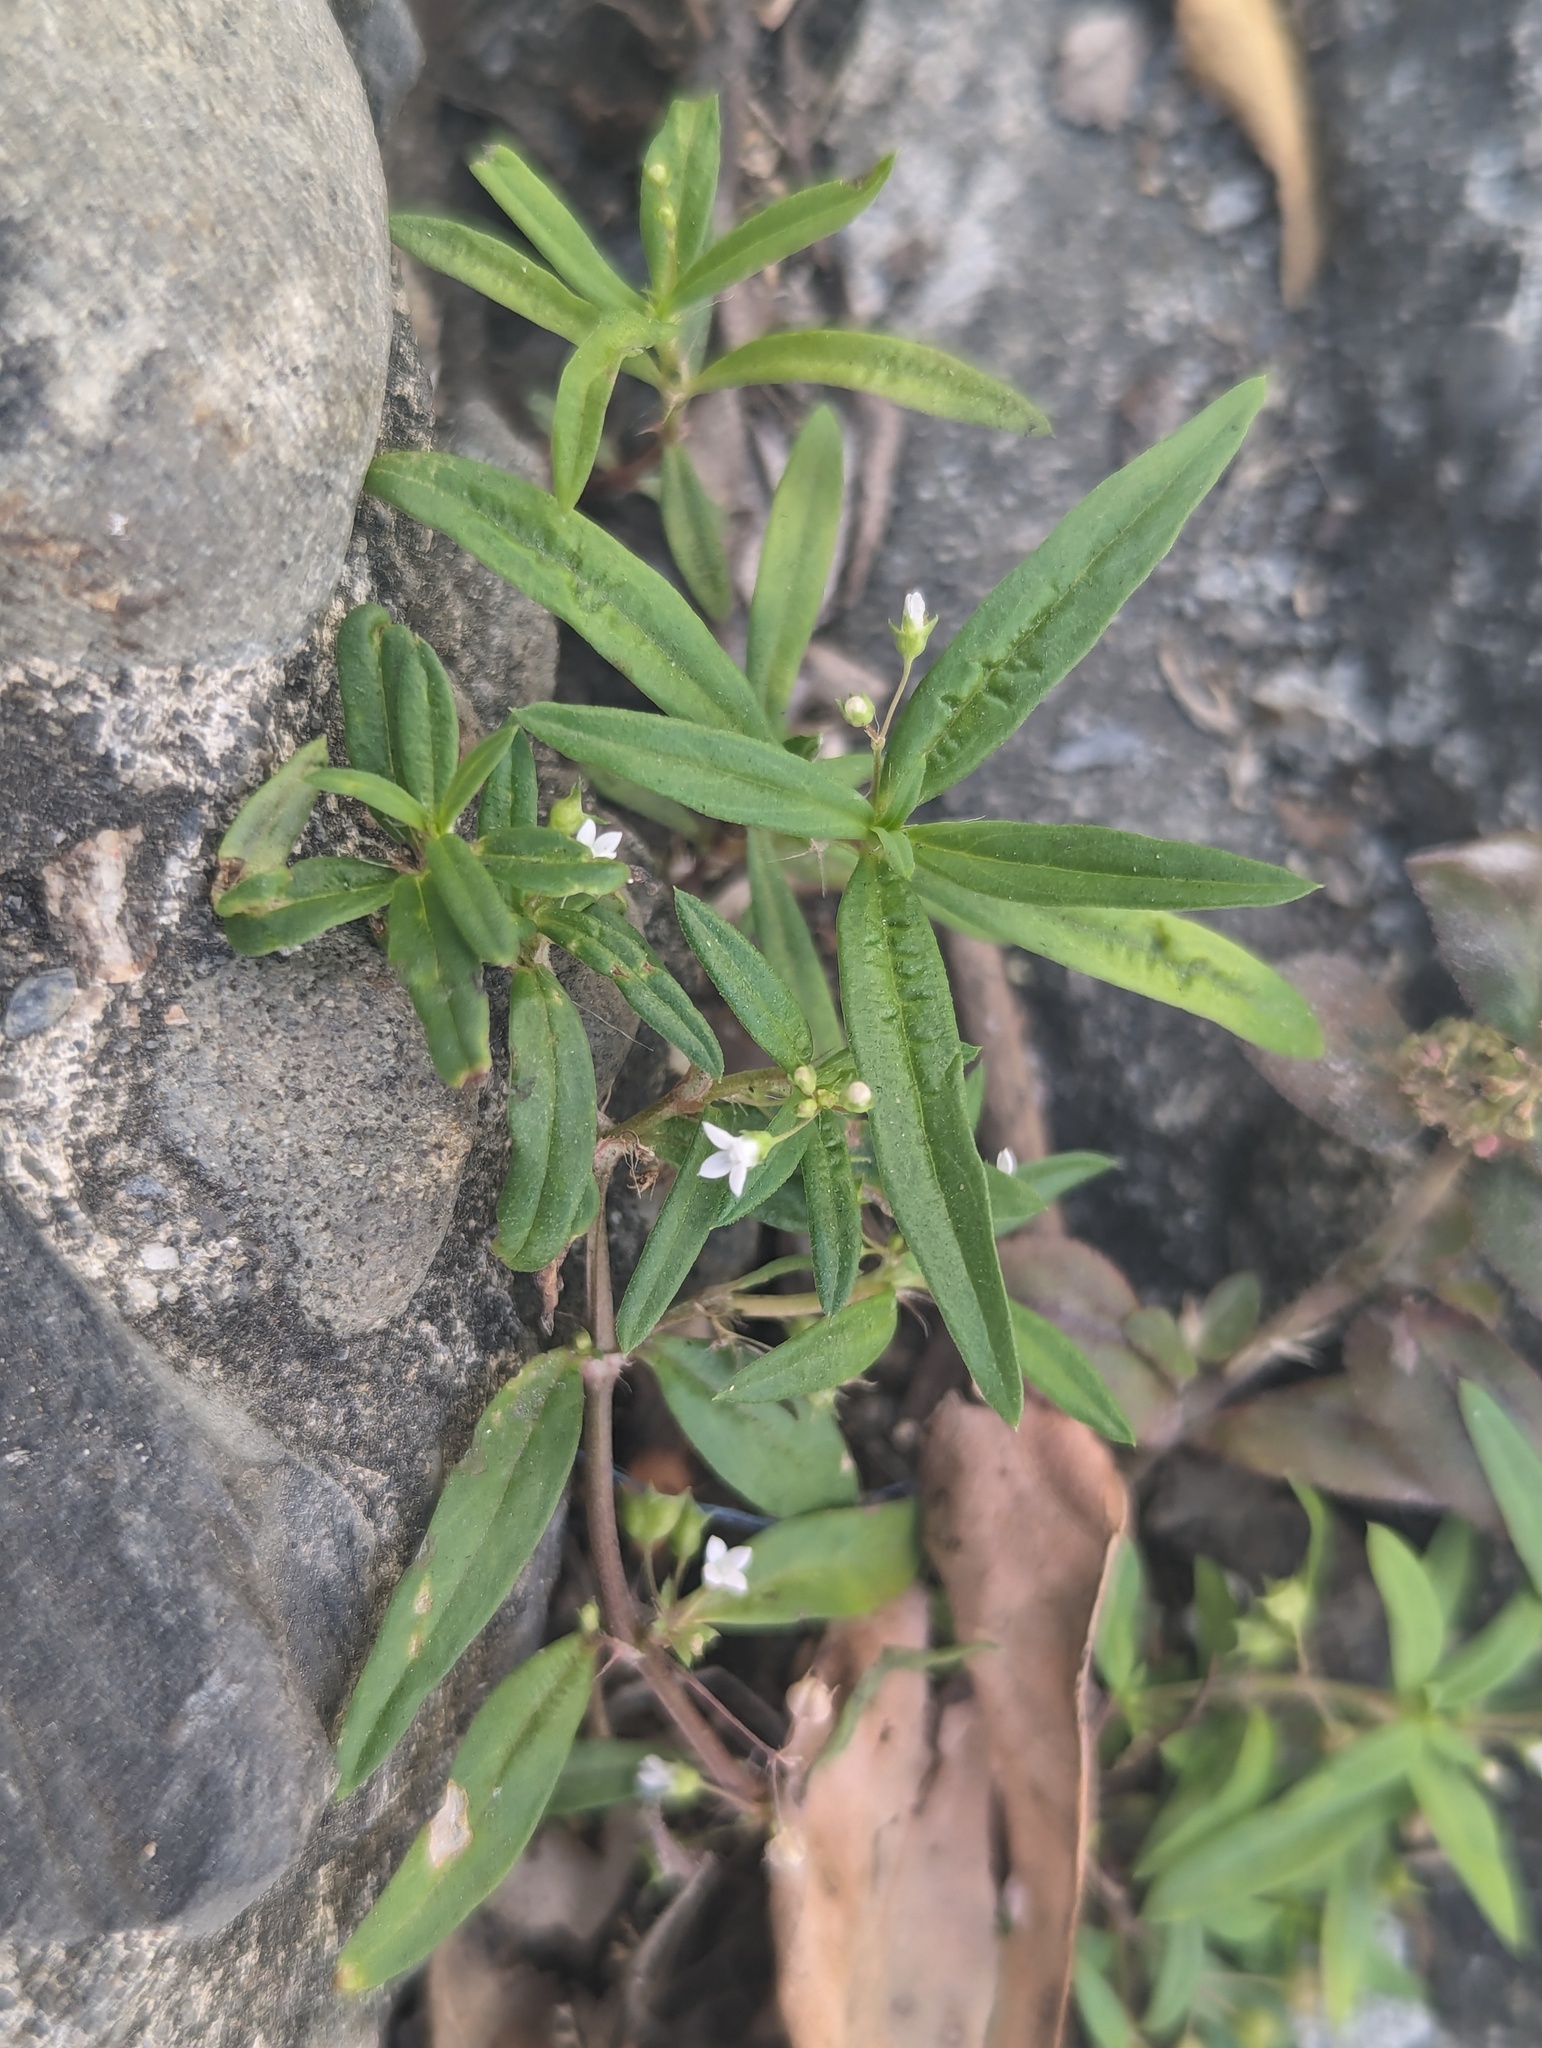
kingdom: Plantae
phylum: Tracheophyta
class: Magnoliopsida
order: Gentianales
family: Rubiaceae
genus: Oldenlandia
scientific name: Oldenlandia corymbosa
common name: Flat-top mille graines
